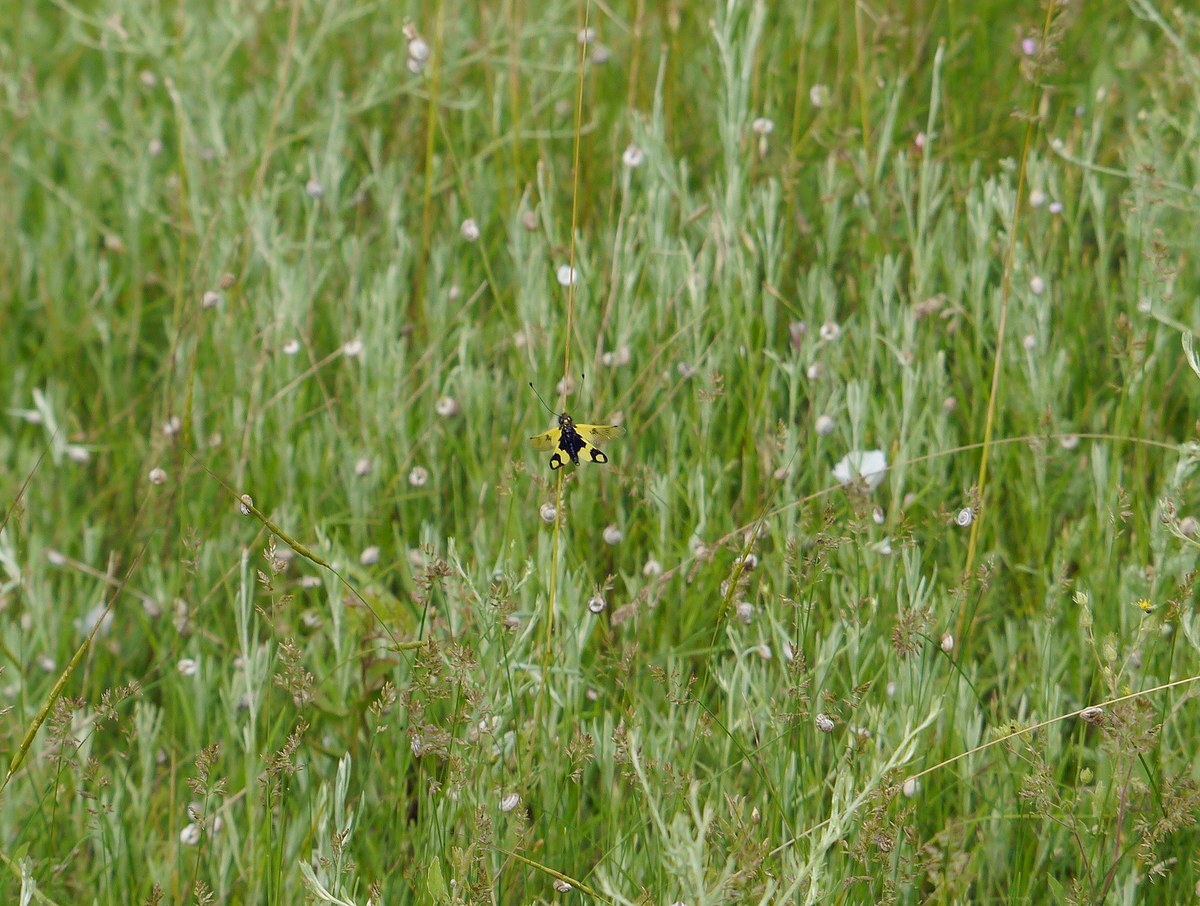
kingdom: Animalia
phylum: Arthropoda
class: Insecta
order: Neuroptera
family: Ascalaphidae
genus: Libelloides
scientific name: Libelloides macaronius
